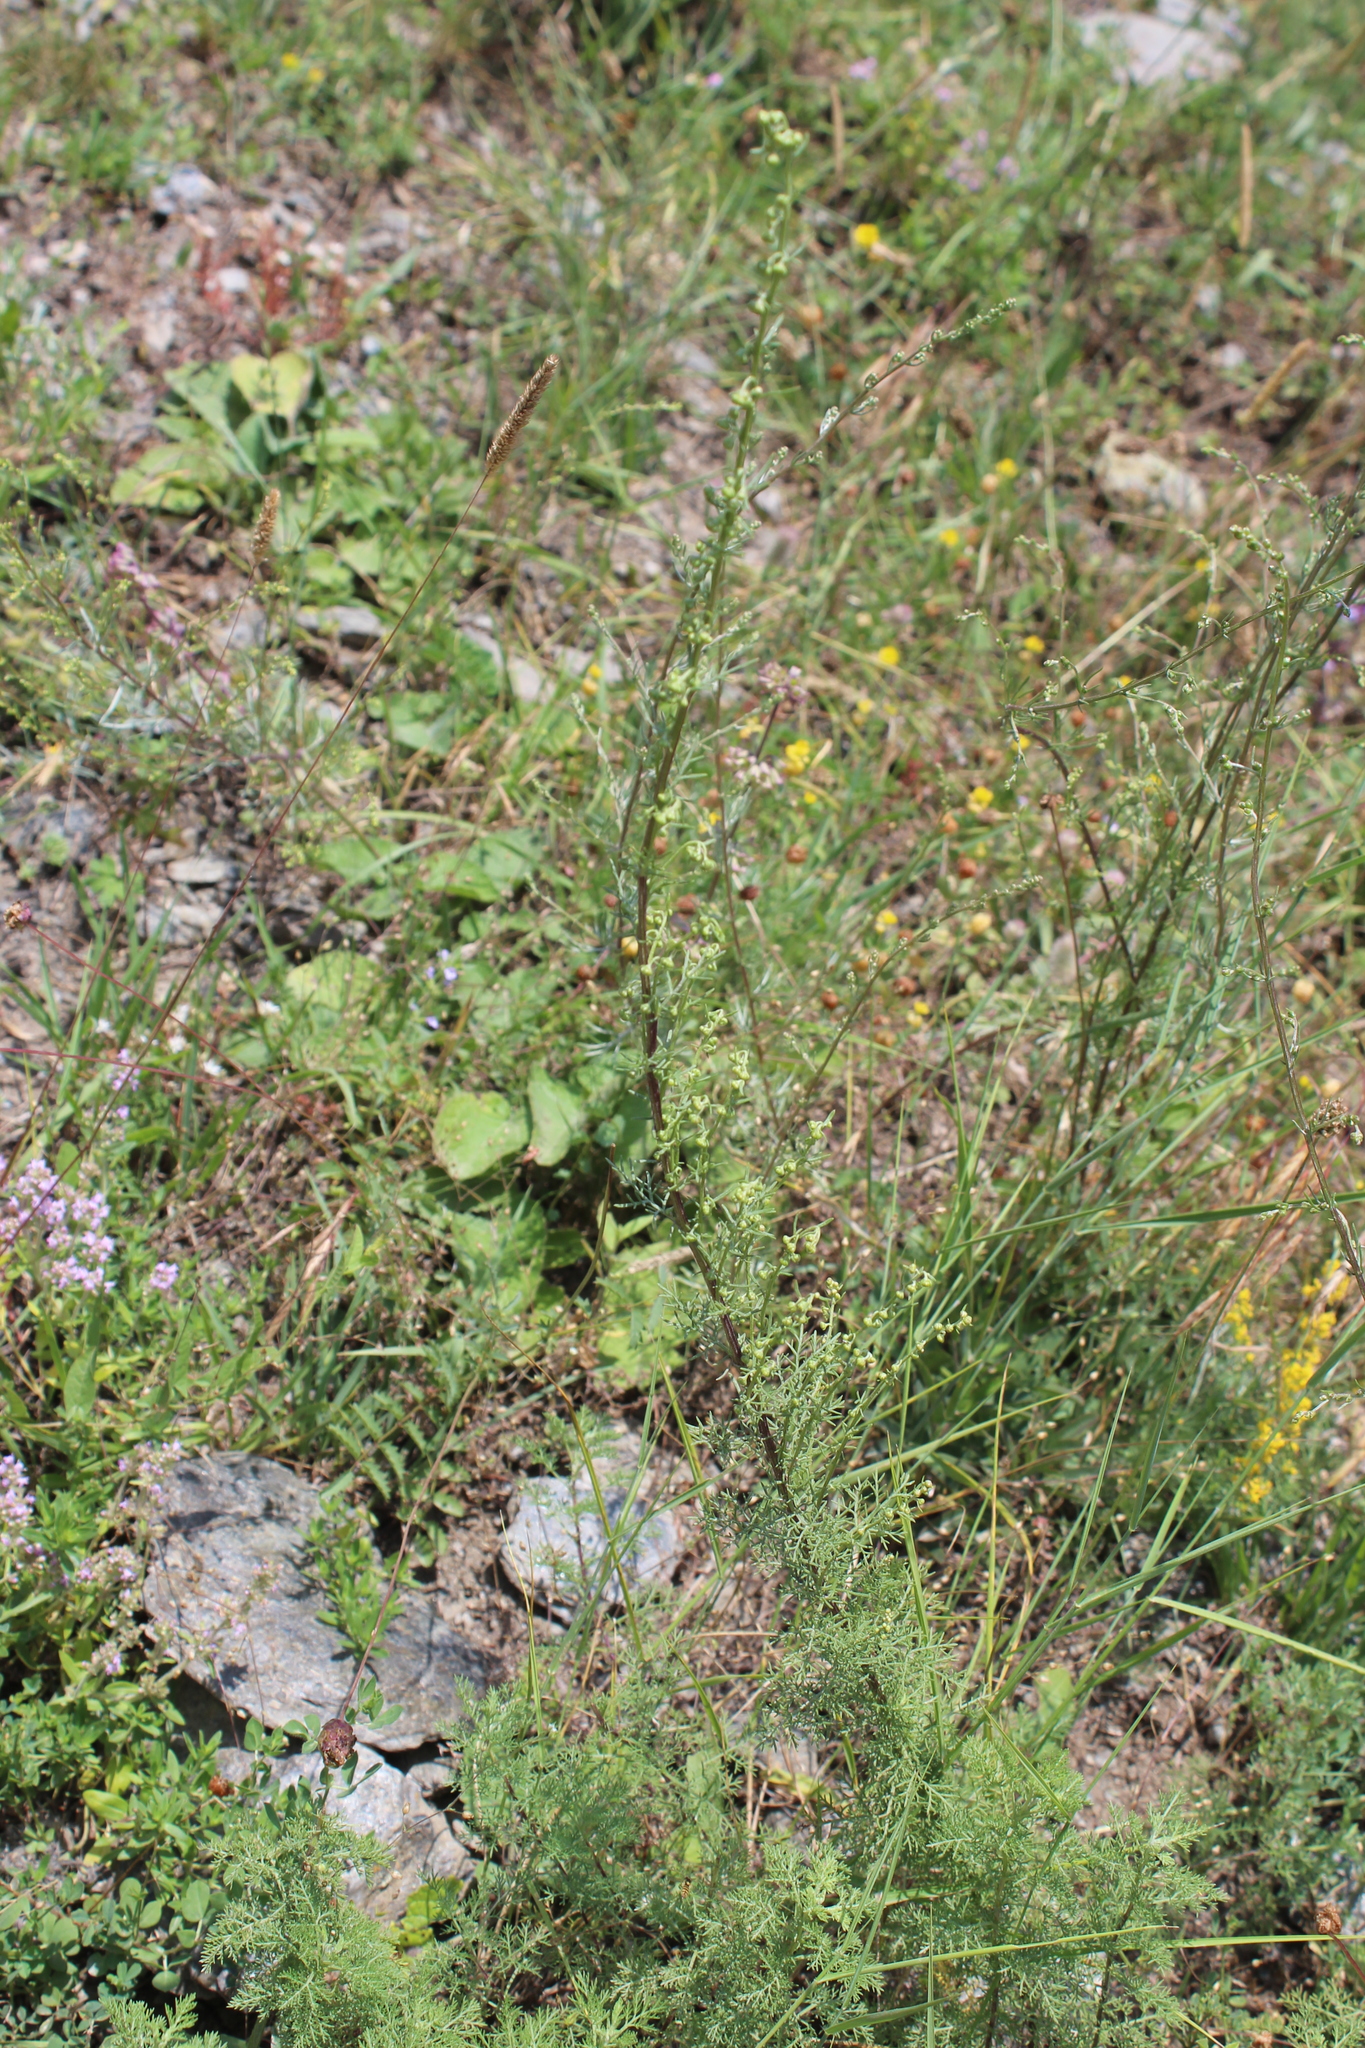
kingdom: Plantae
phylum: Tracheophyta
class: Magnoliopsida
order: Asterales
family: Asteraceae
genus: Artemisia
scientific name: Artemisia chamaemelifolia
